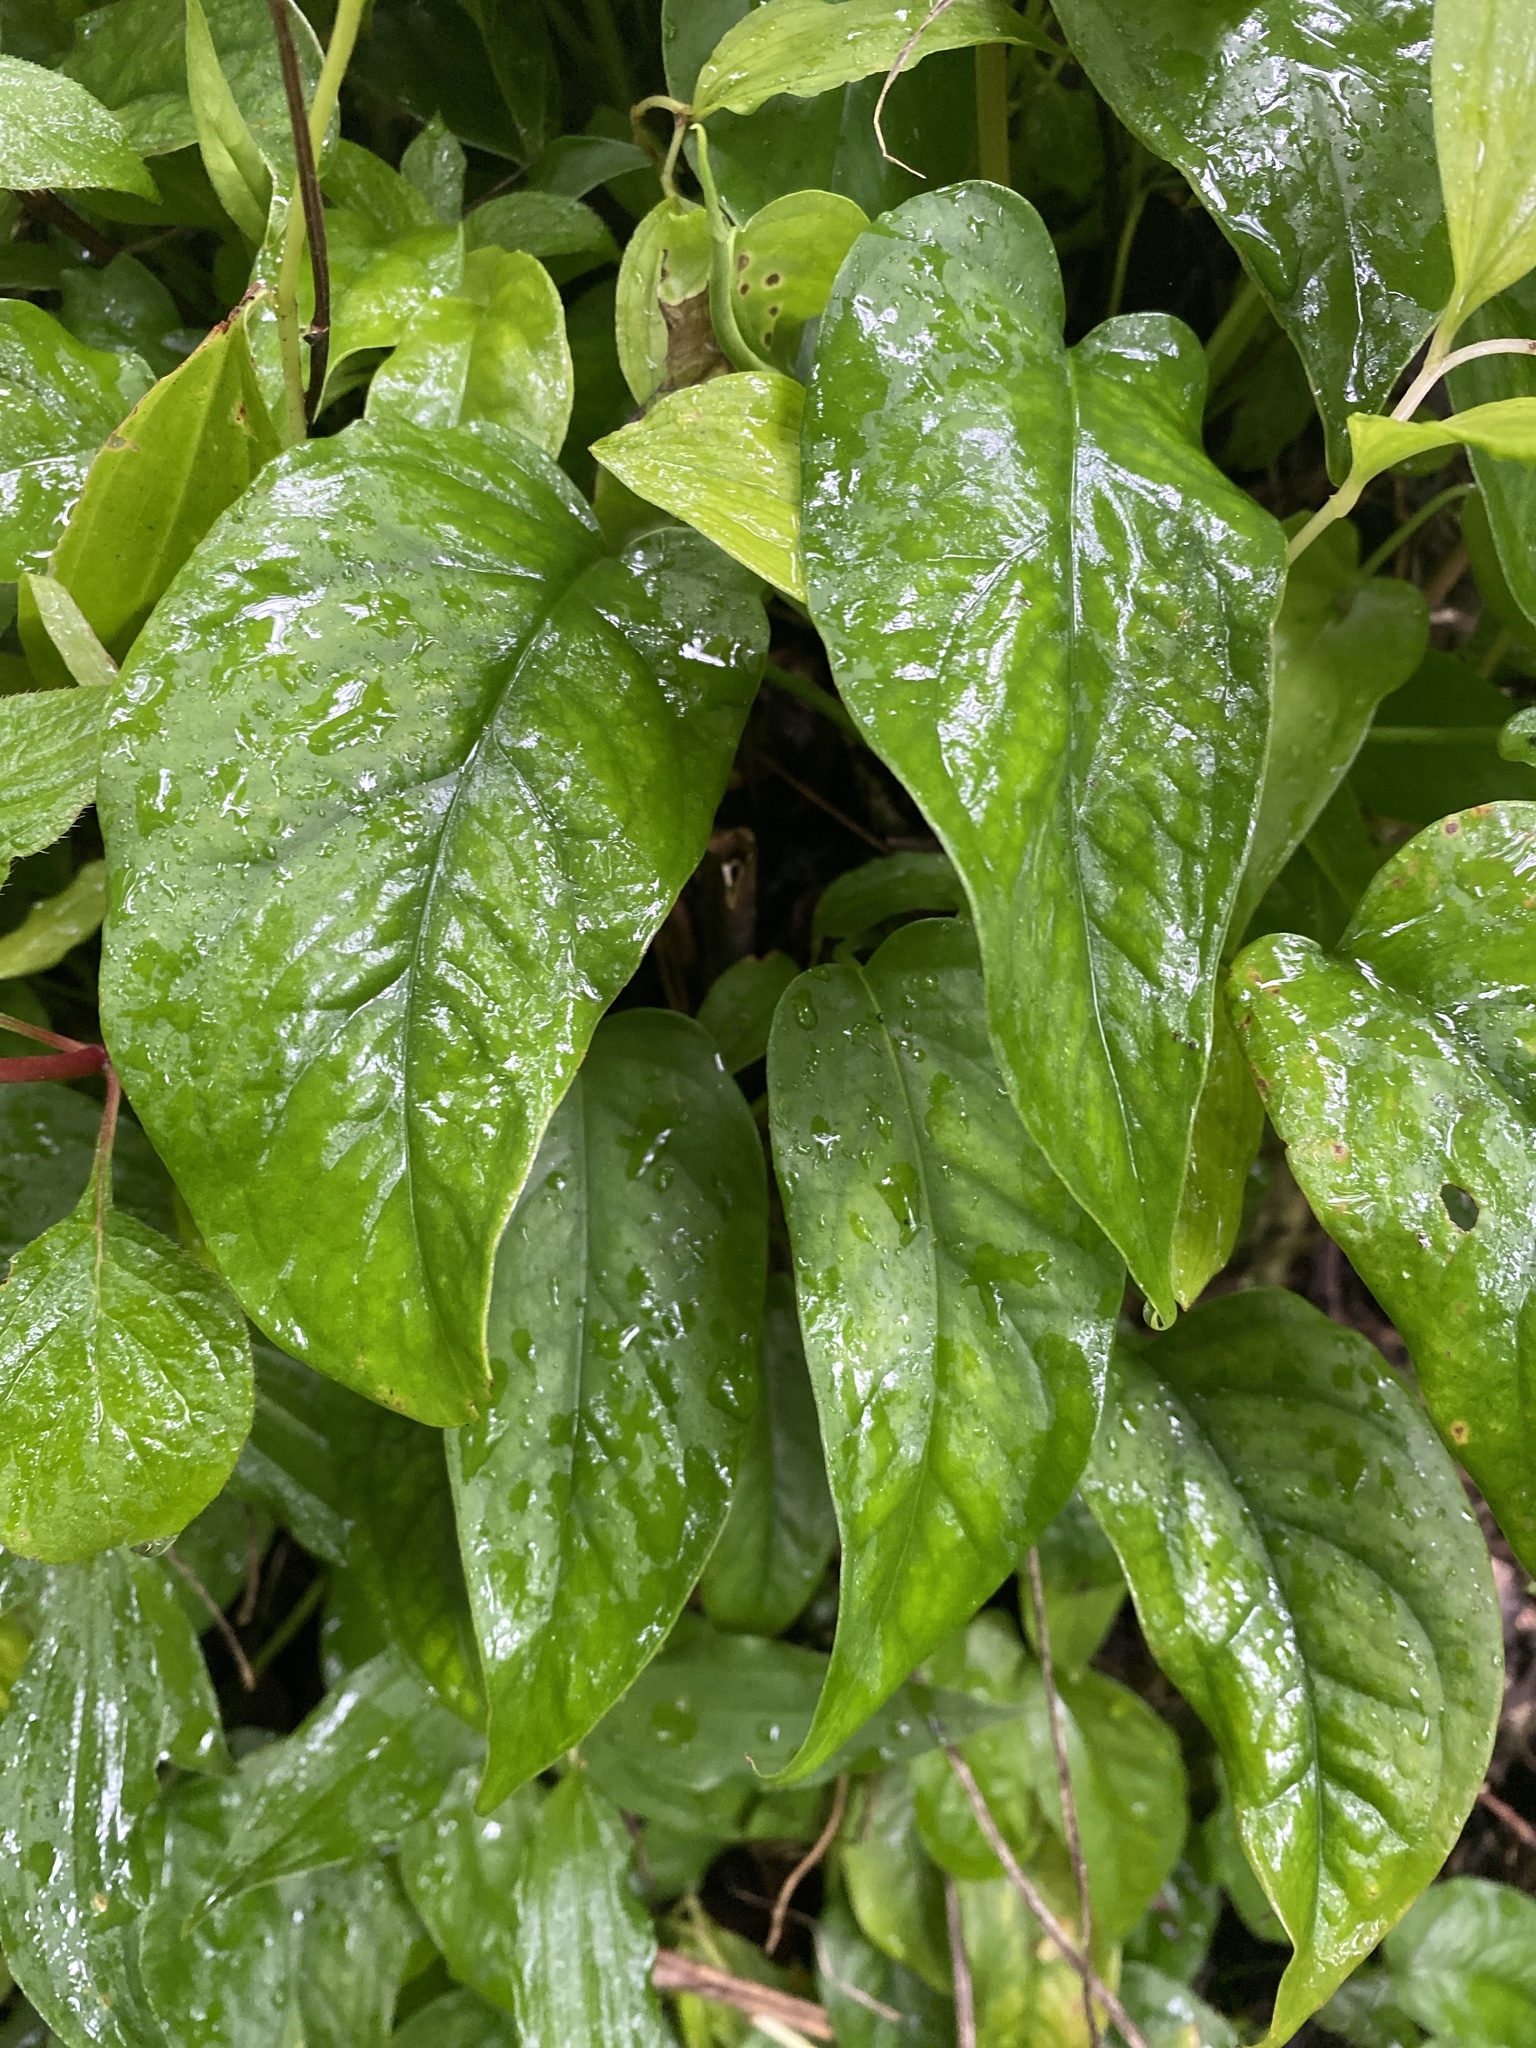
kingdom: Plantae
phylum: Tracheophyta
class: Liliopsida
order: Alismatales
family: Araceae
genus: Monstera
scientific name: Monstera siltepecana
